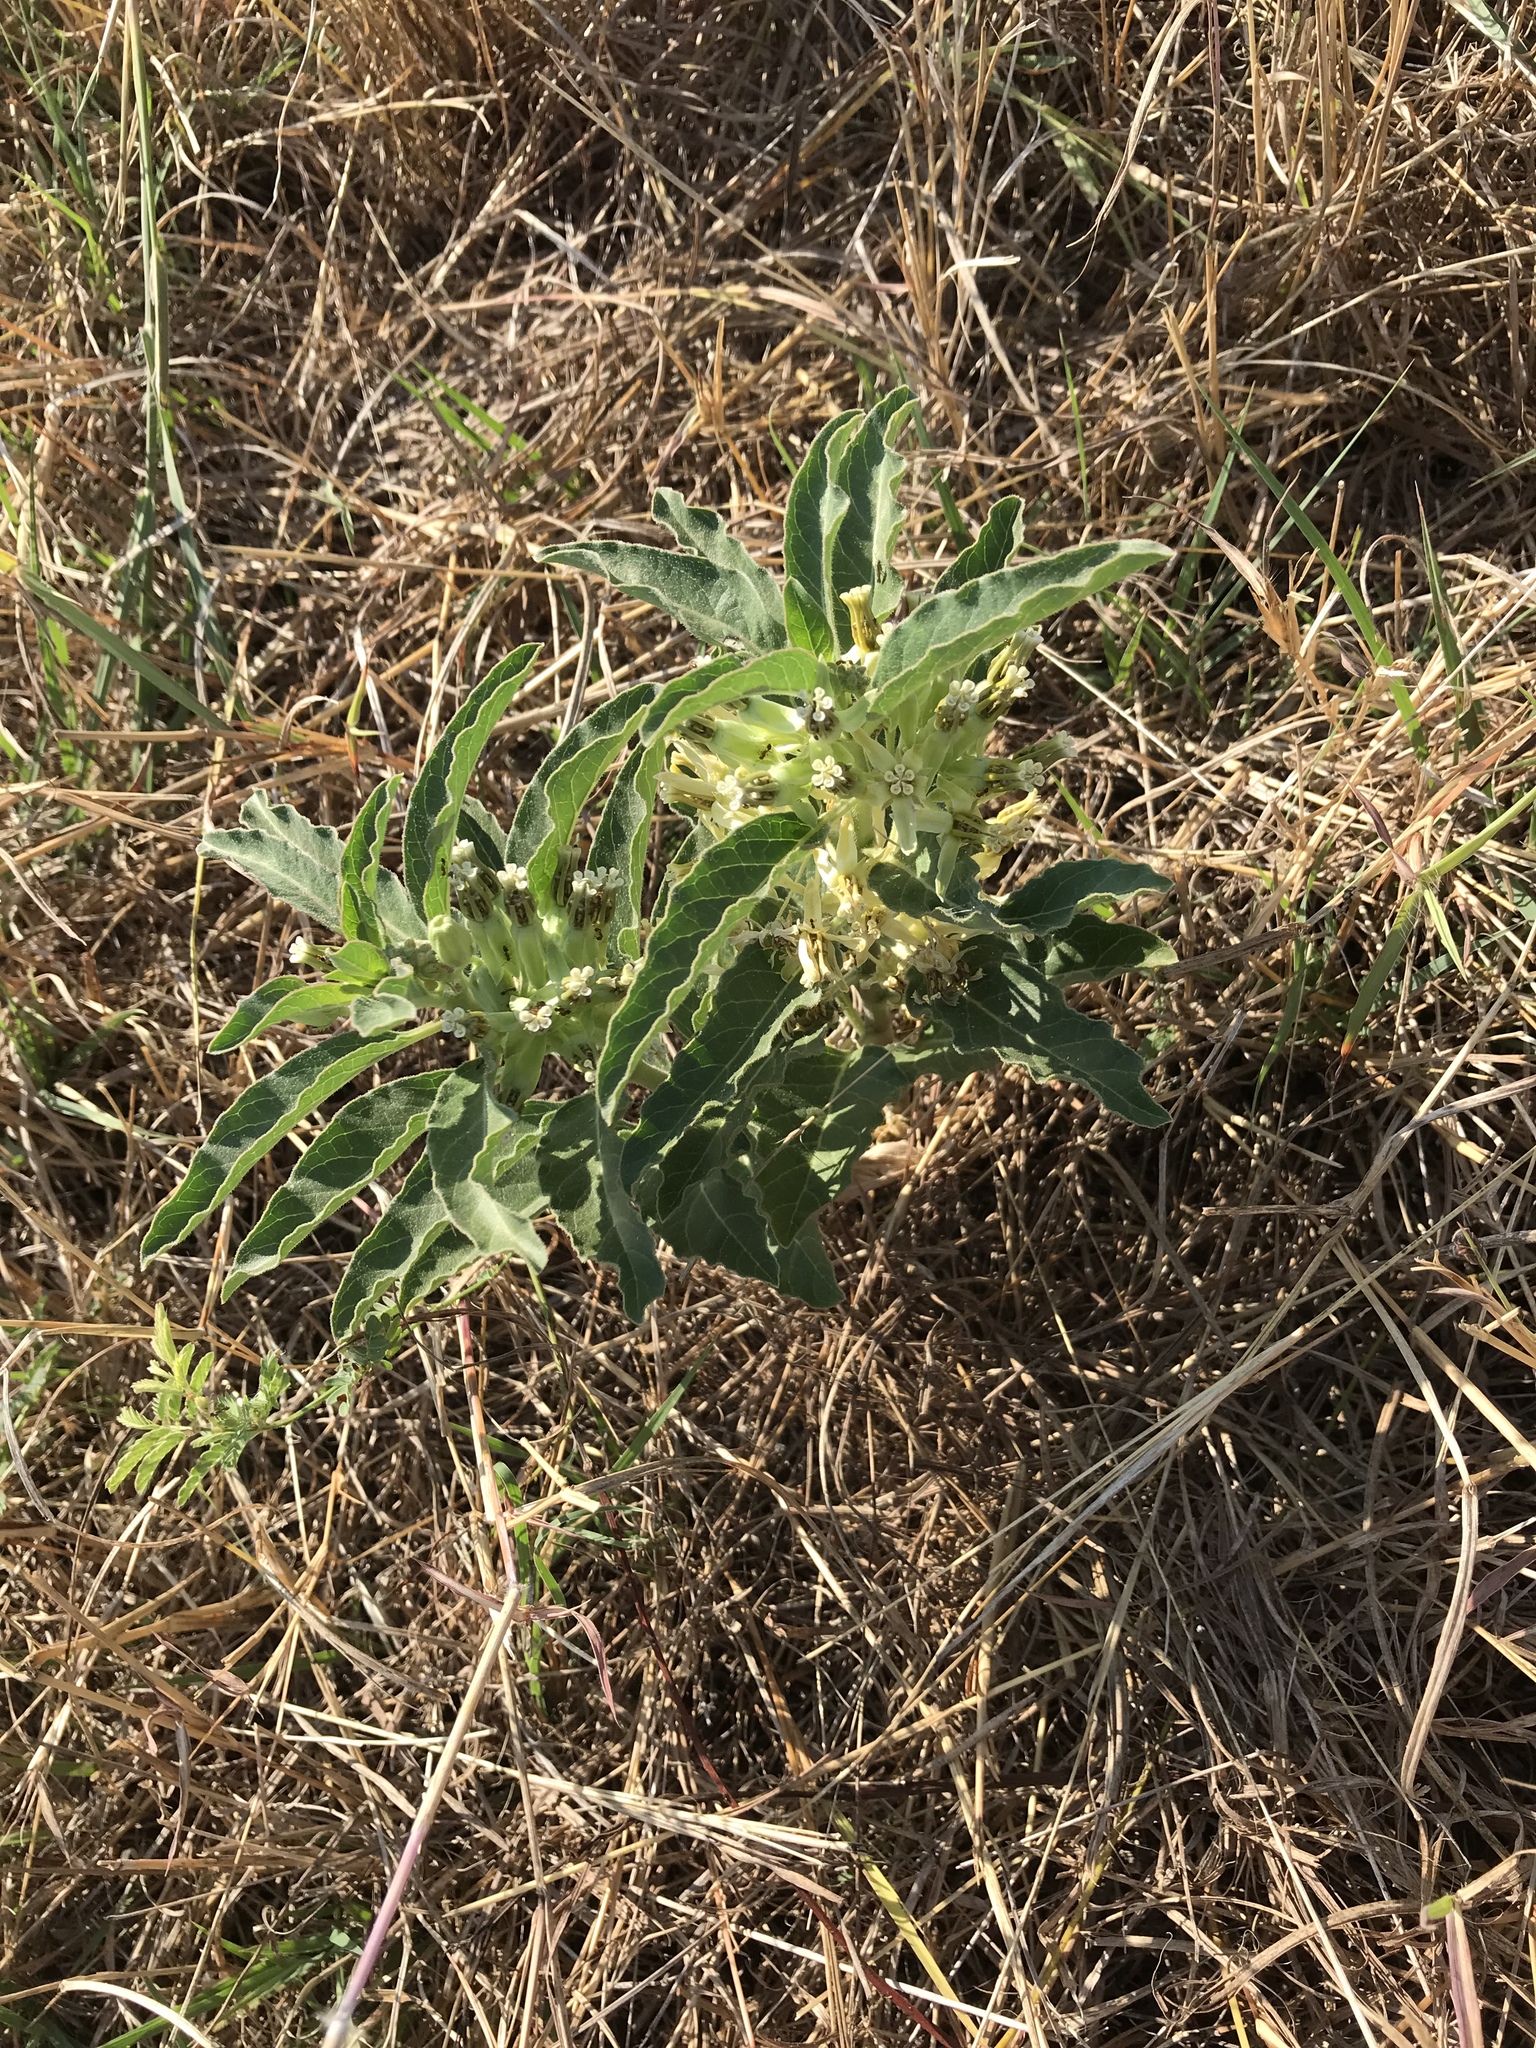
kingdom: Plantae
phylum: Tracheophyta
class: Magnoliopsida
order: Gentianales
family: Apocynaceae
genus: Asclepias
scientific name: Asclepias oenotheroides
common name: Zizotes milkweed
